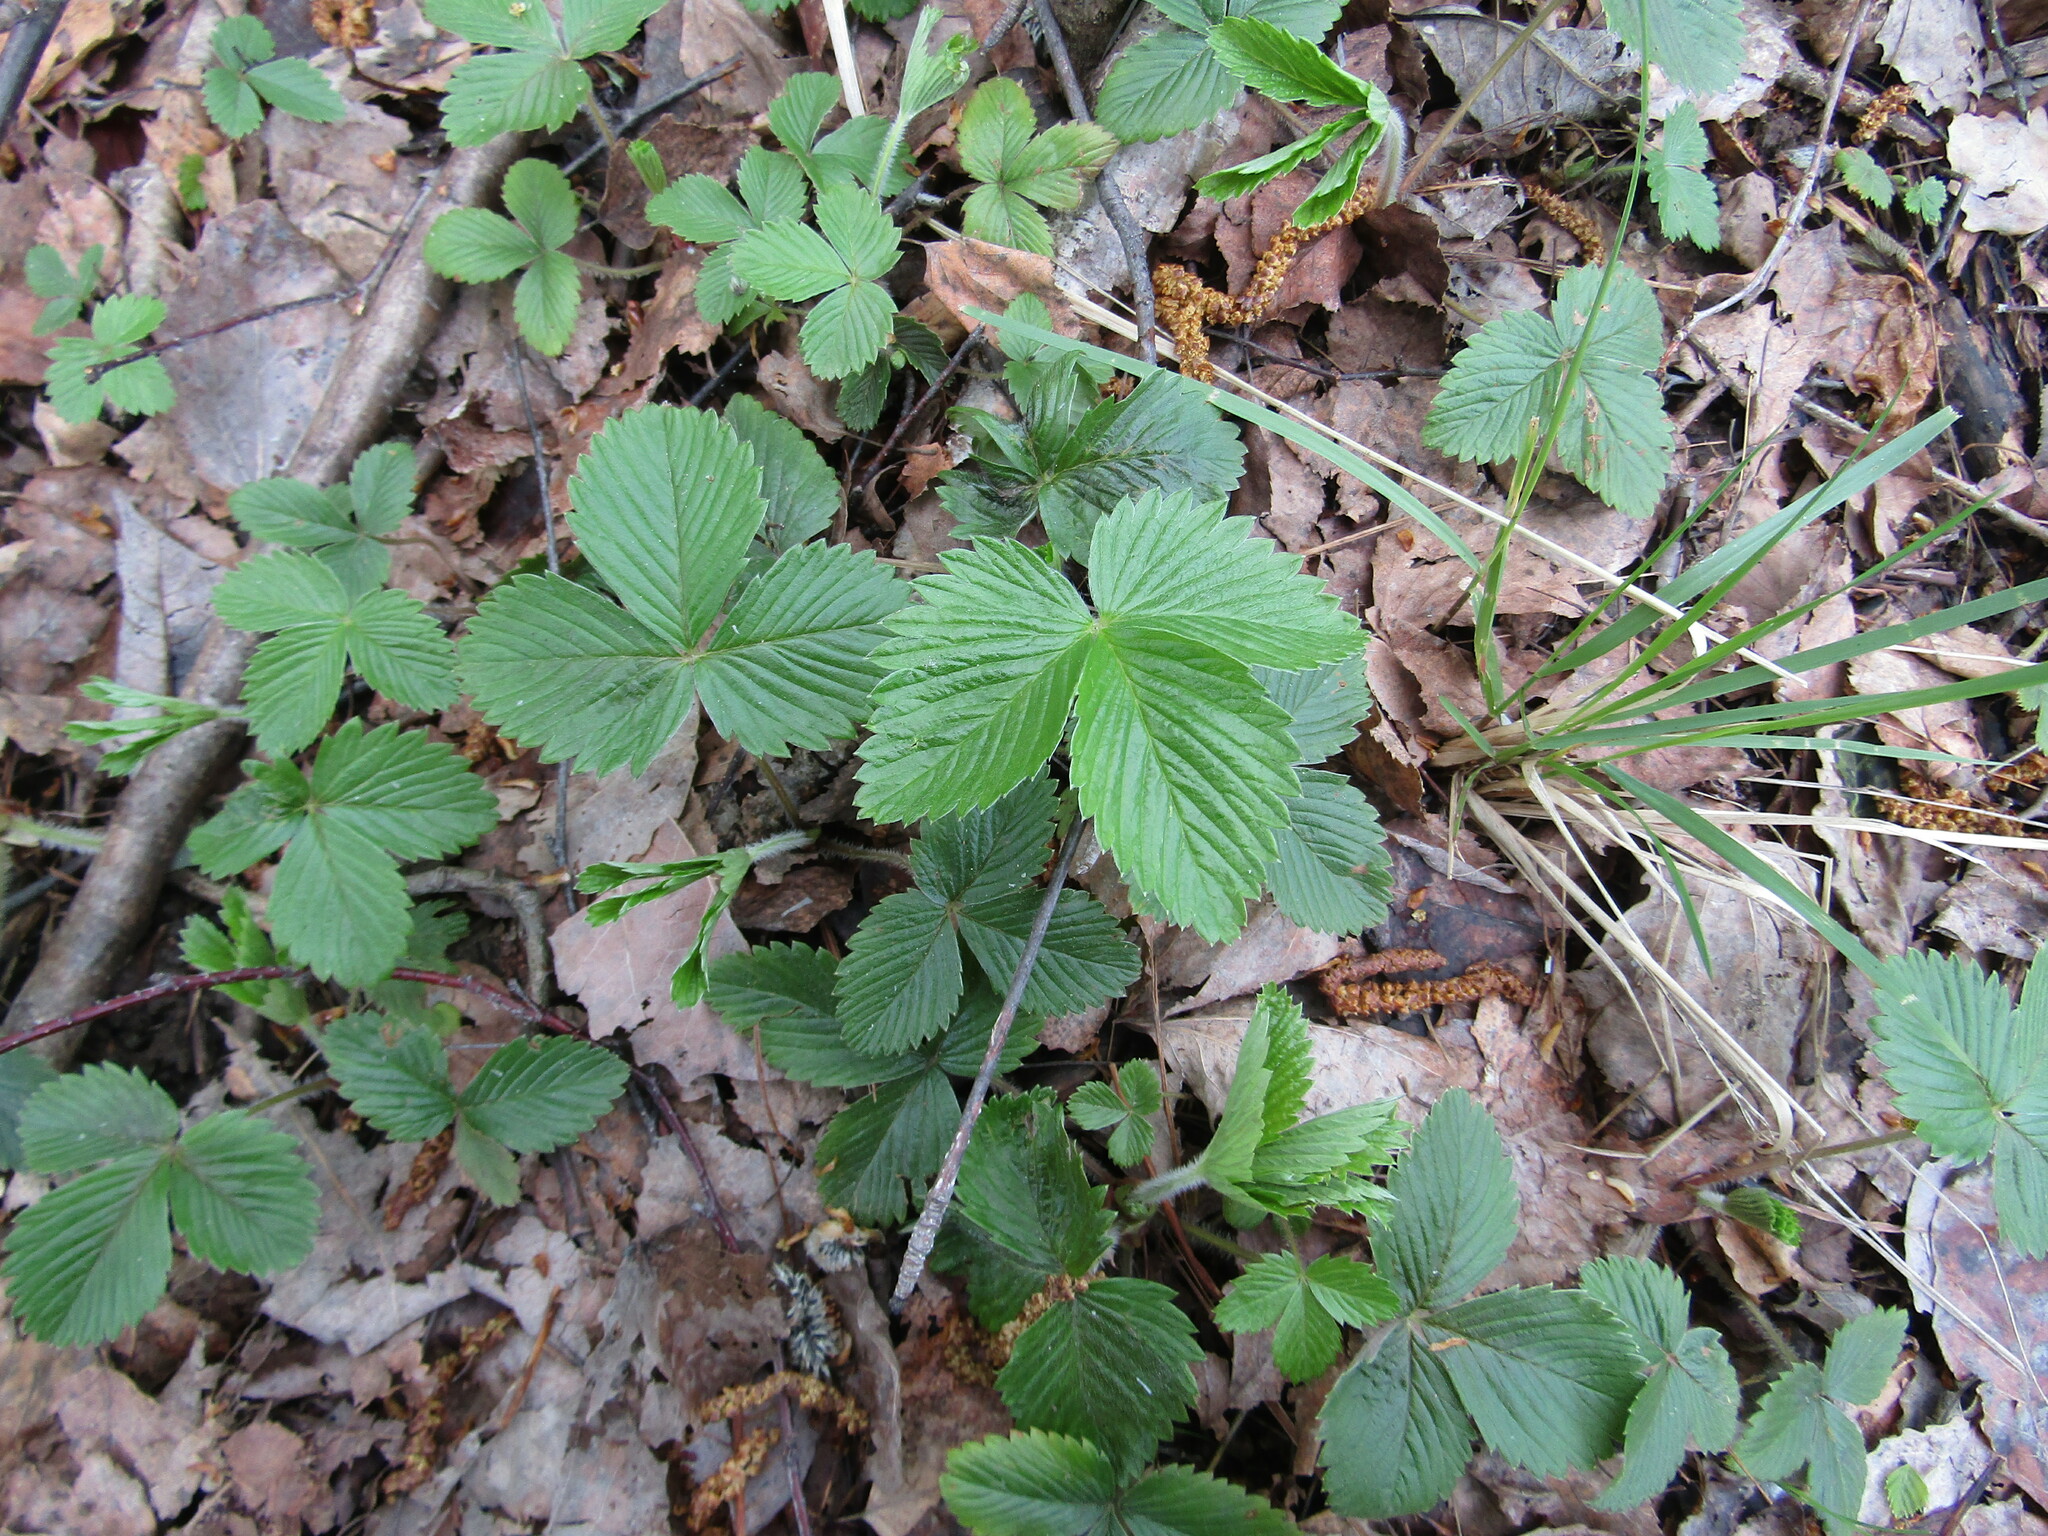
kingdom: Plantae
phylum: Tracheophyta
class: Magnoliopsida
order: Rosales
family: Rosaceae
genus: Fragaria
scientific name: Fragaria vesca
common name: Wild strawberry
